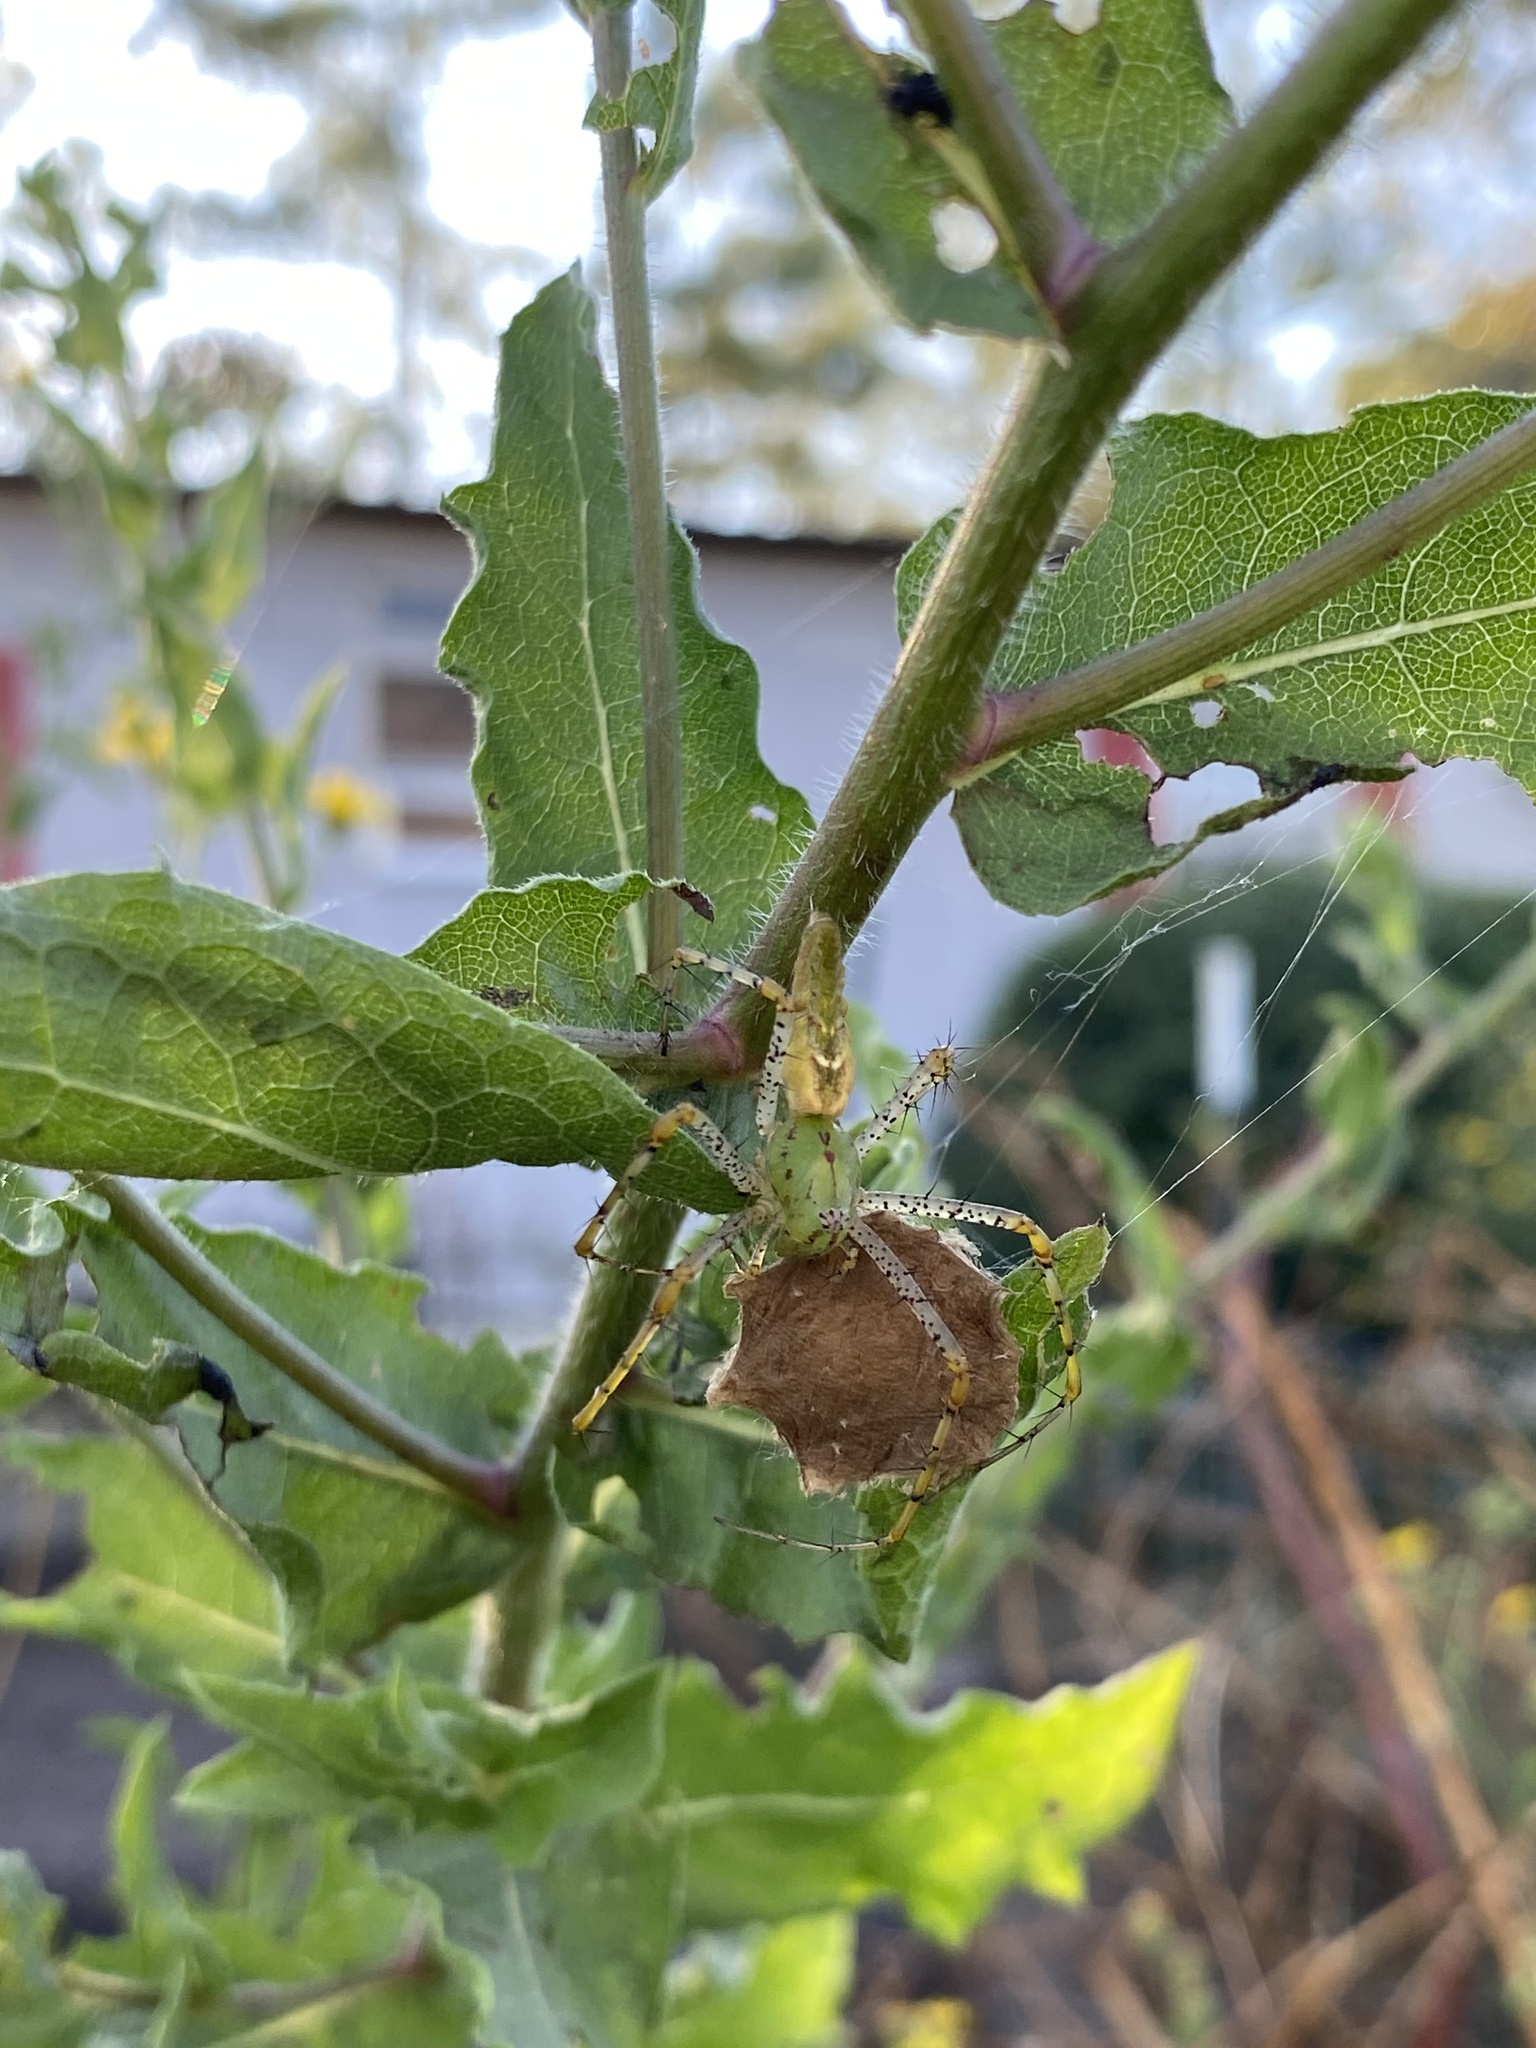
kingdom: Animalia
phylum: Arthropoda
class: Arachnida
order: Araneae
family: Oxyopidae
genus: Peucetia
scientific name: Peucetia viridans
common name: Lynx spiders
